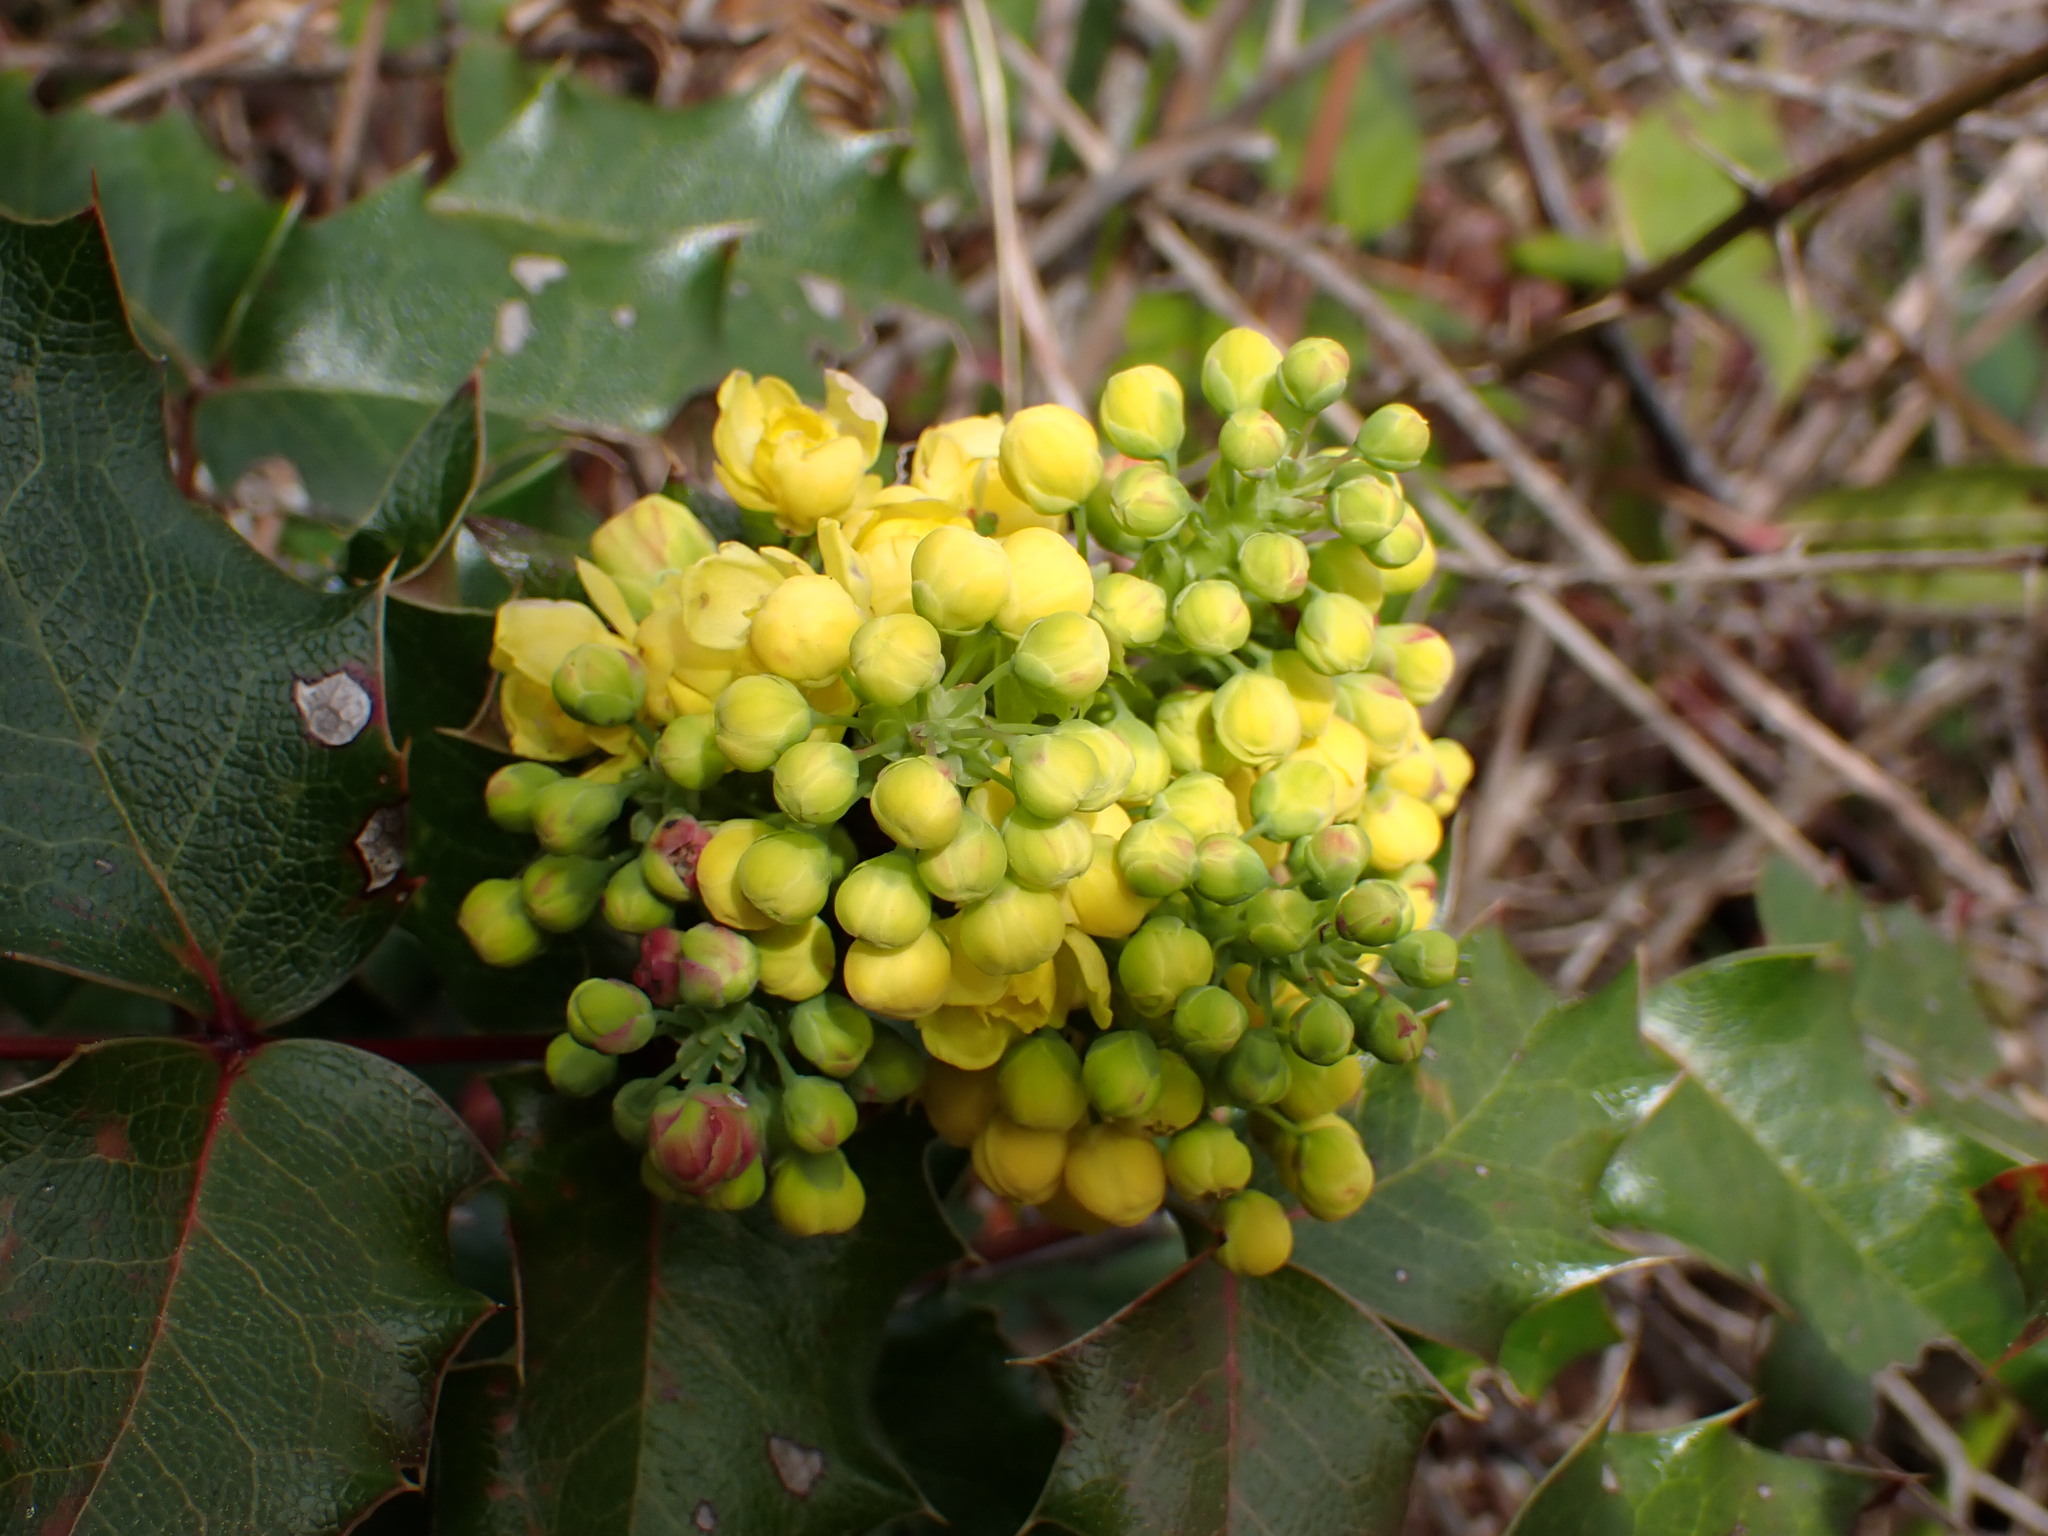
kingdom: Plantae
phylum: Tracheophyta
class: Magnoliopsida
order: Ranunculales
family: Berberidaceae
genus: Mahonia
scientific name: Mahonia aquifolium
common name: Oregon-grape
